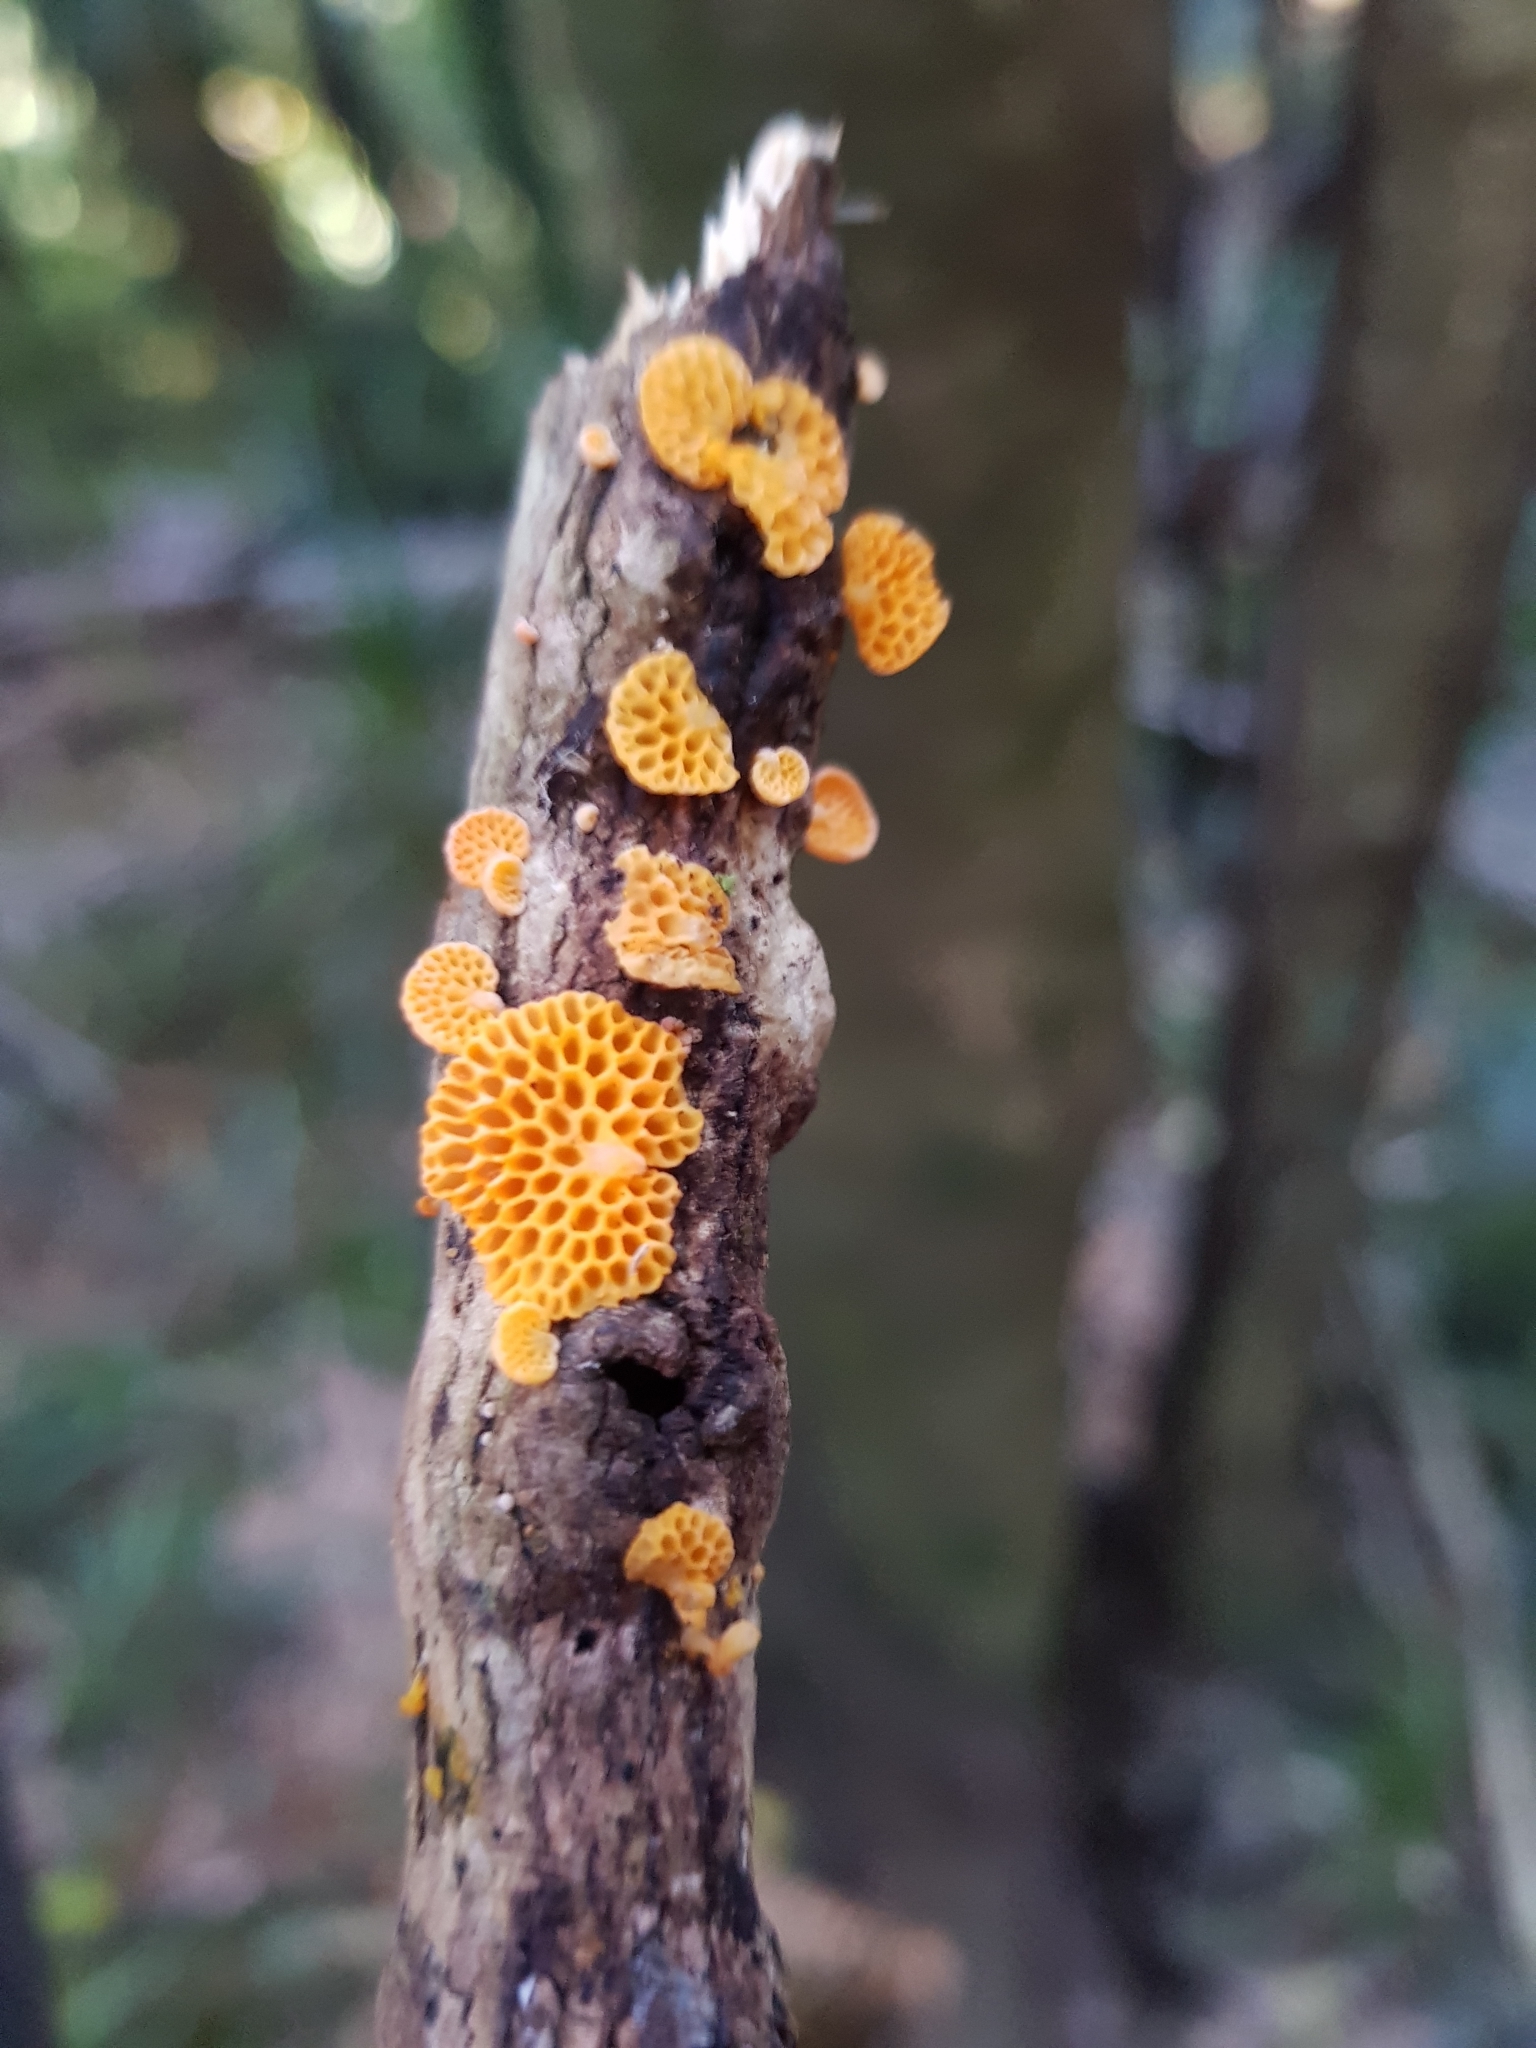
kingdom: Fungi
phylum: Basidiomycota
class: Agaricomycetes
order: Agaricales
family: Mycenaceae
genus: Favolaschia
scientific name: Favolaschia claudopus
